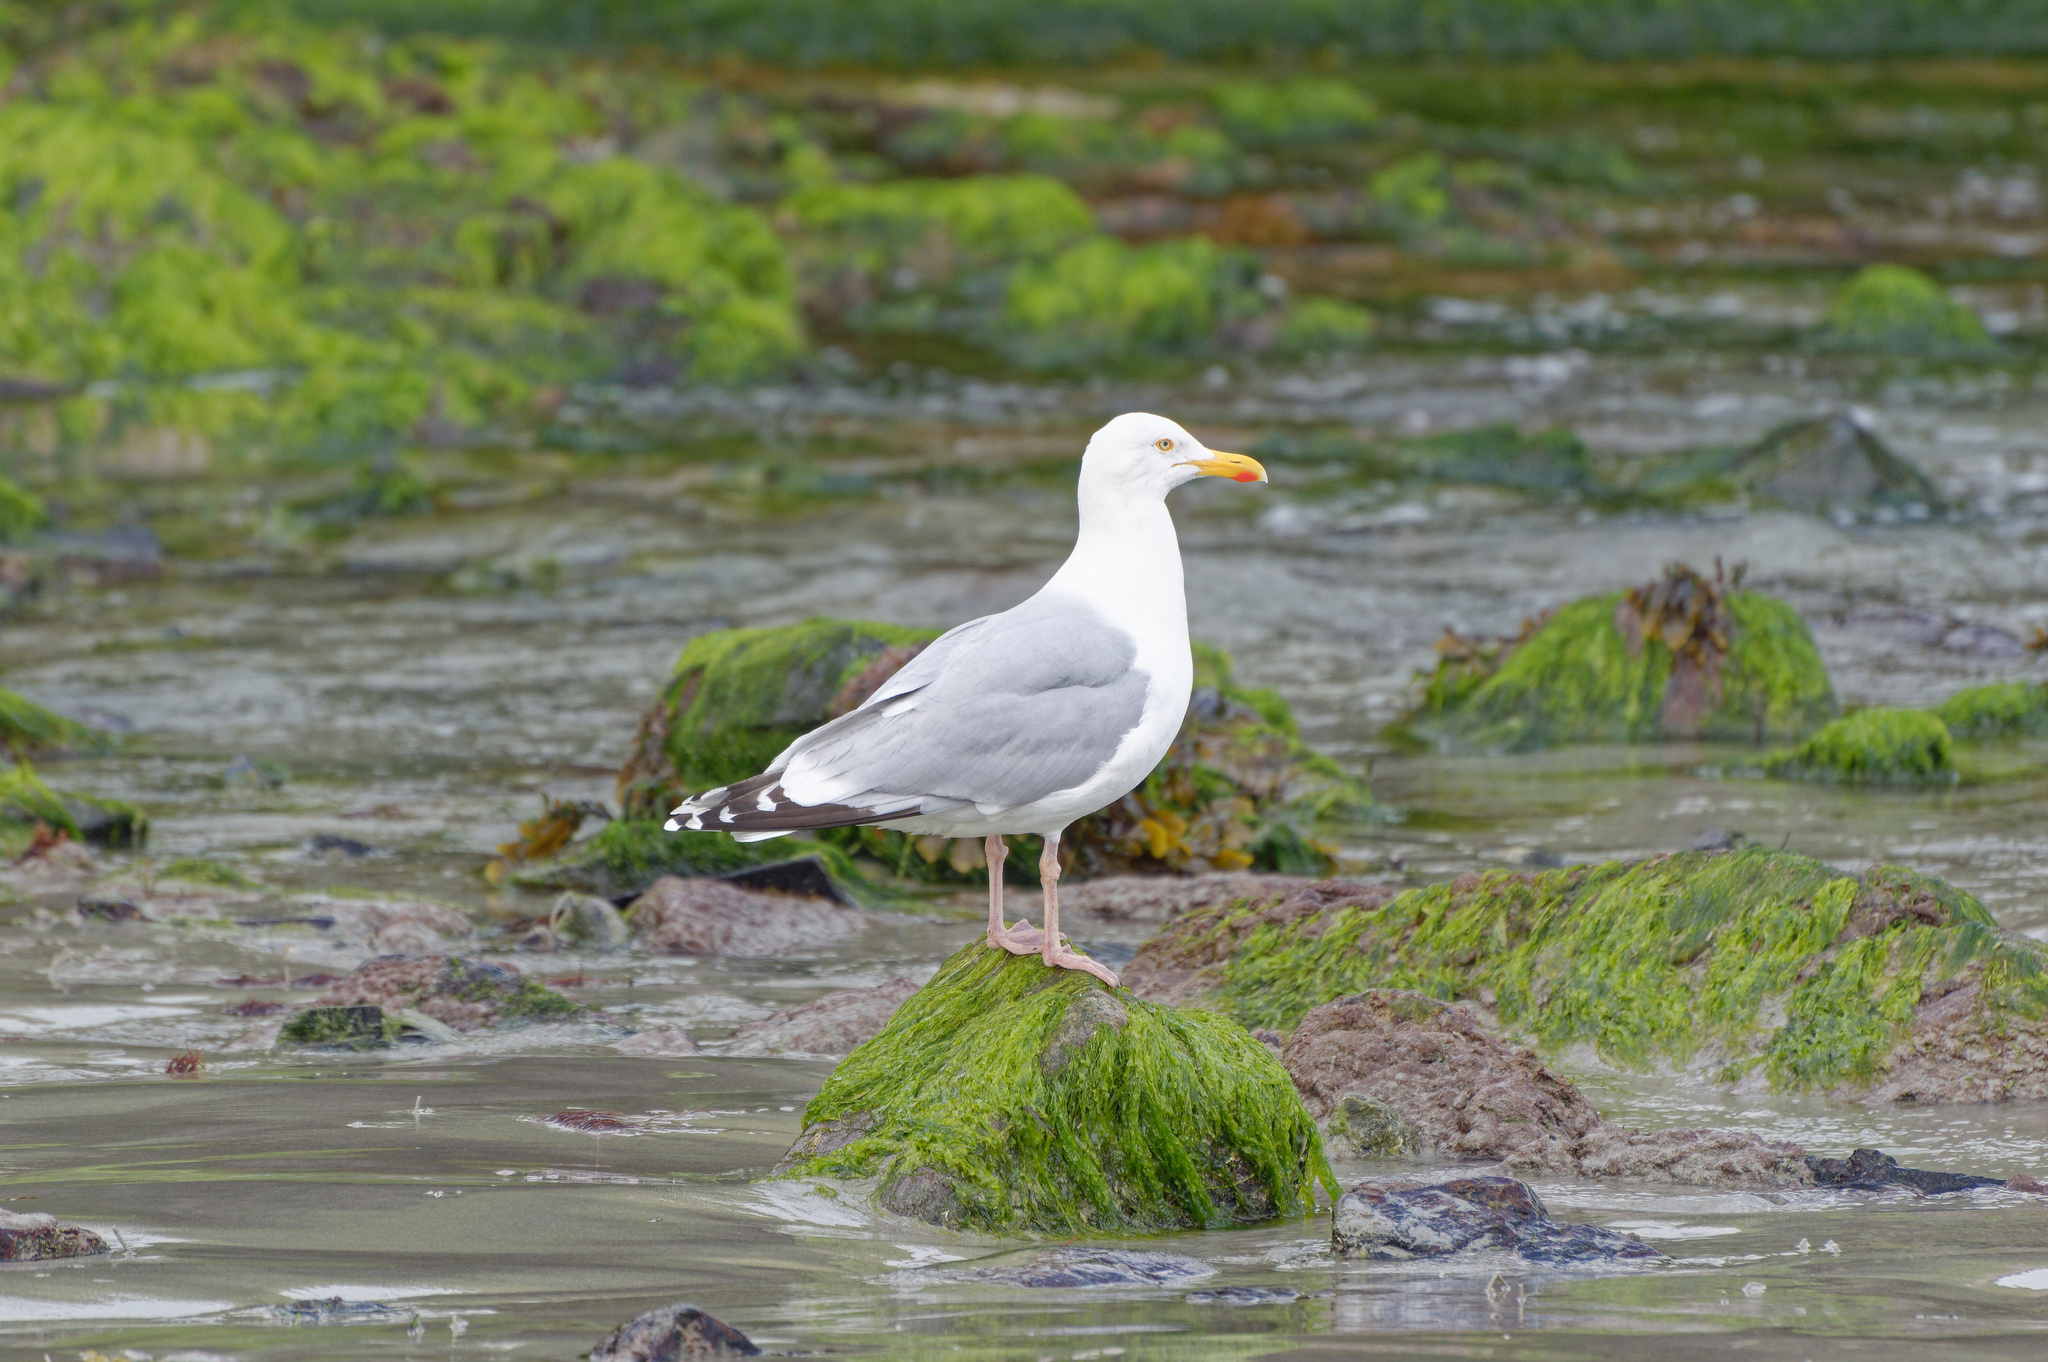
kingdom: Animalia
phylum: Chordata
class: Aves
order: Charadriiformes
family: Laridae
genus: Larus
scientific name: Larus argentatus
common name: Herring gull
